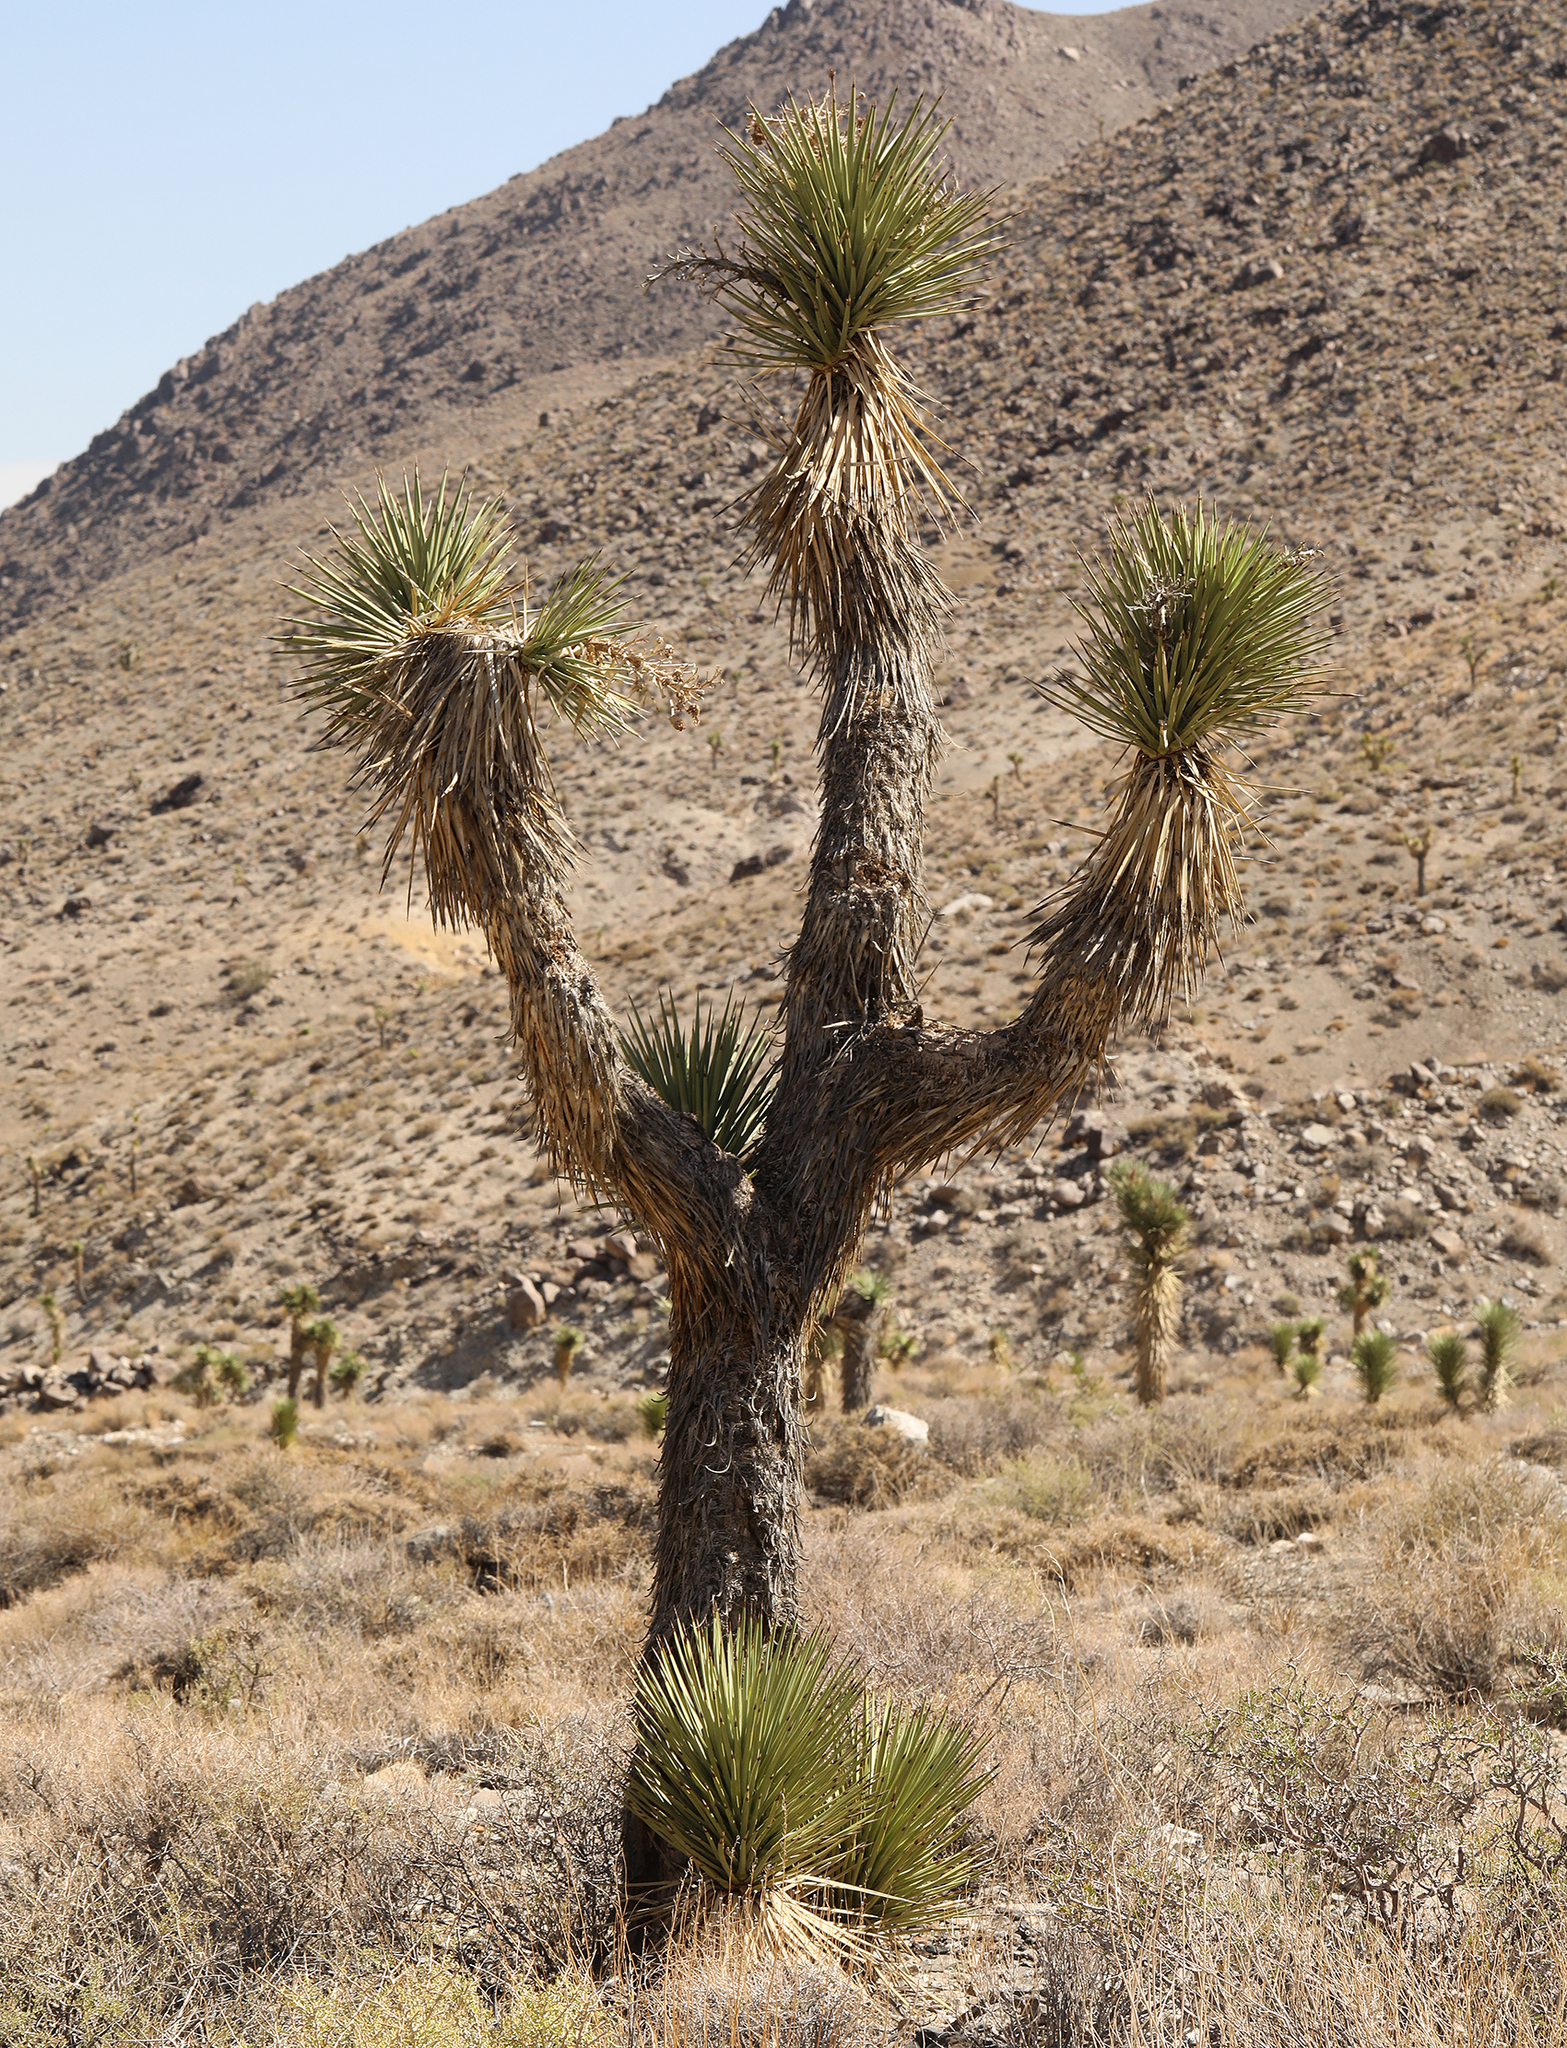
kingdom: Plantae
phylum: Tracheophyta
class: Liliopsida
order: Asparagales
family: Asparagaceae
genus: Yucca
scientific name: Yucca brevifolia
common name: Joshua tree
